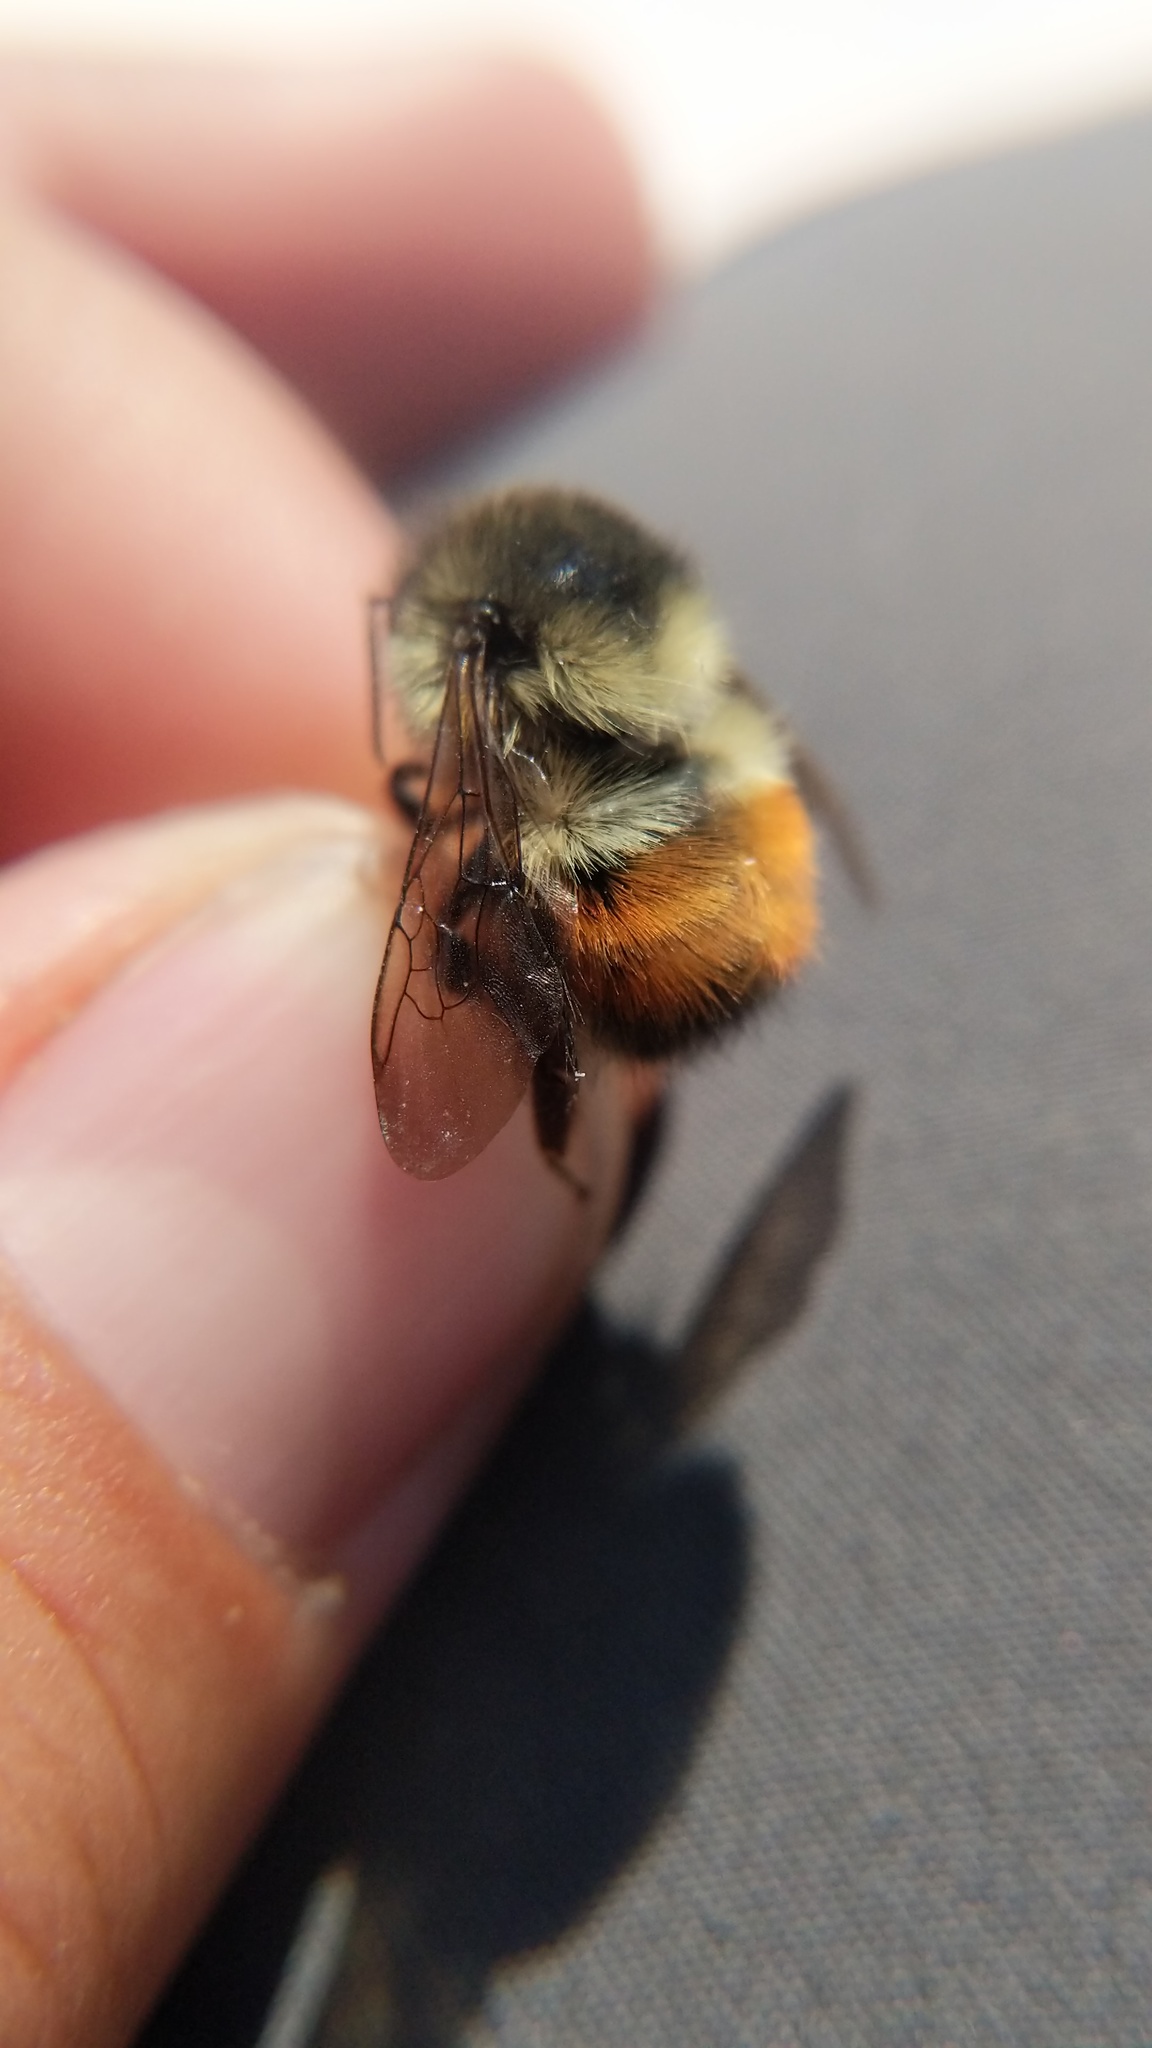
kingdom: Animalia
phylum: Arthropoda
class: Insecta
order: Hymenoptera
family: Apidae
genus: Bombus
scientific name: Bombus melanopygus
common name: Black tail bumble bee
